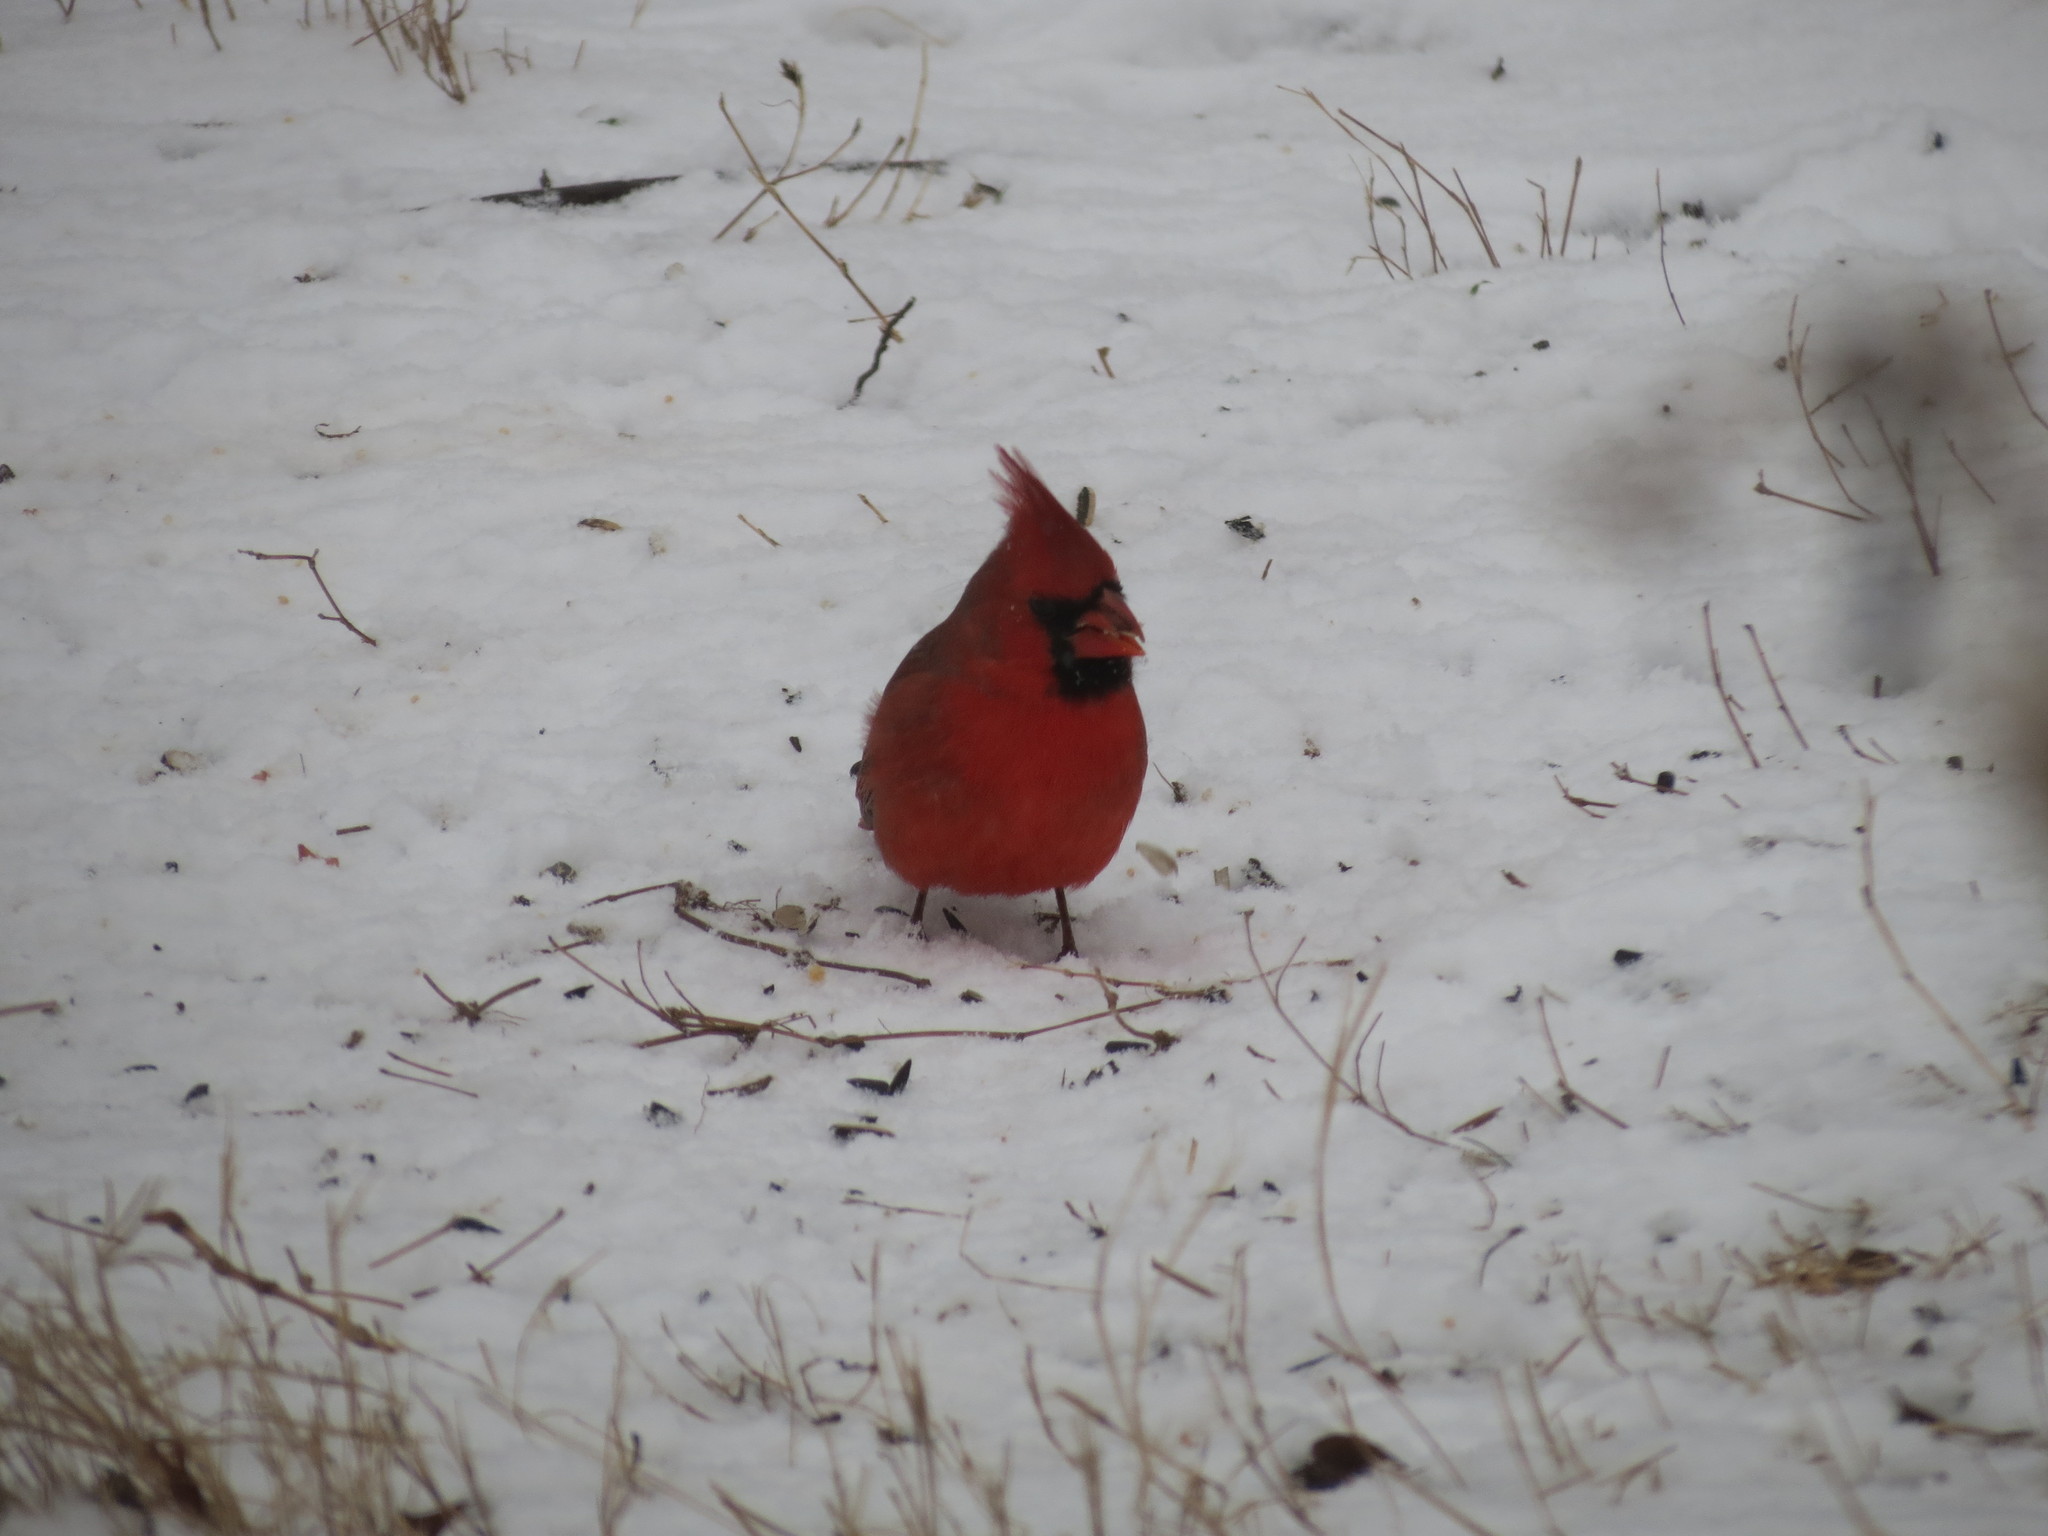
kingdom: Animalia
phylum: Chordata
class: Aves
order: Passeriformes
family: Cardinalidae
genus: Cardinalis
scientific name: Cardinalis cardinalis
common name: Northern cardinal
